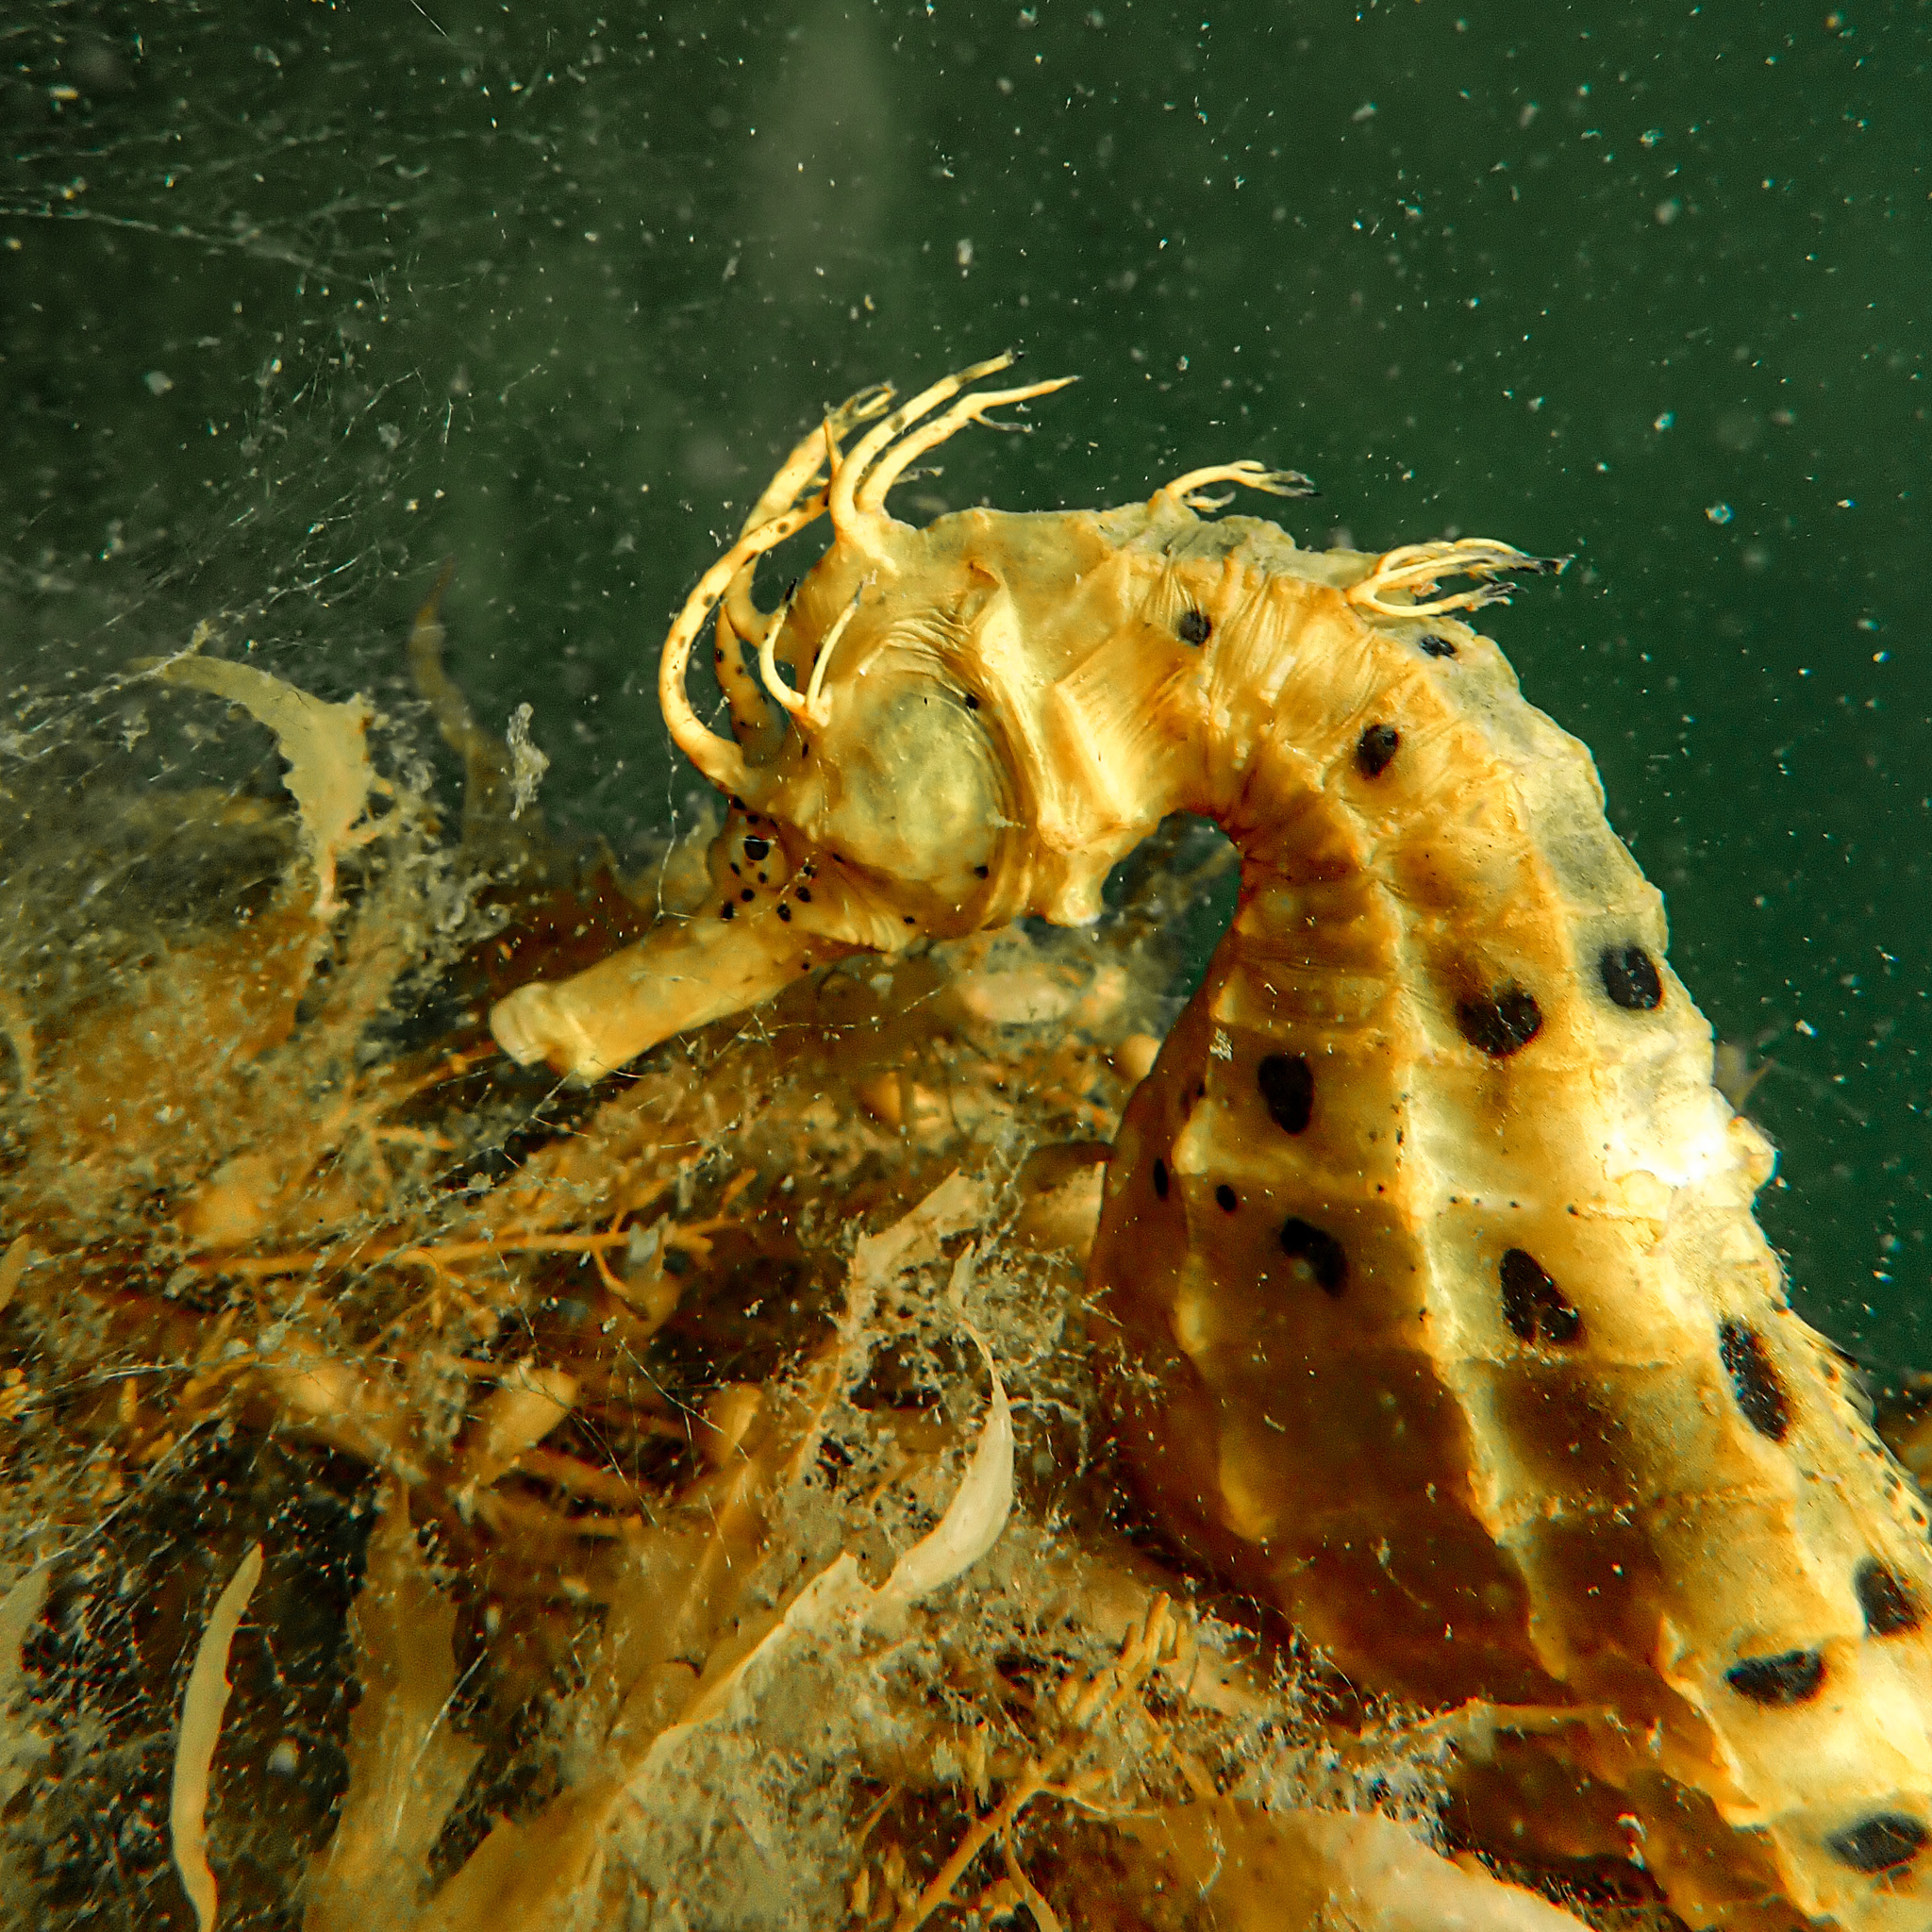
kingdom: Animalia
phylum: Chordata
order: Syngnathiformes
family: Syngnathidae
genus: Hippocampus
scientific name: Hippocampus abdominalis
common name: Big-belly seahorse
